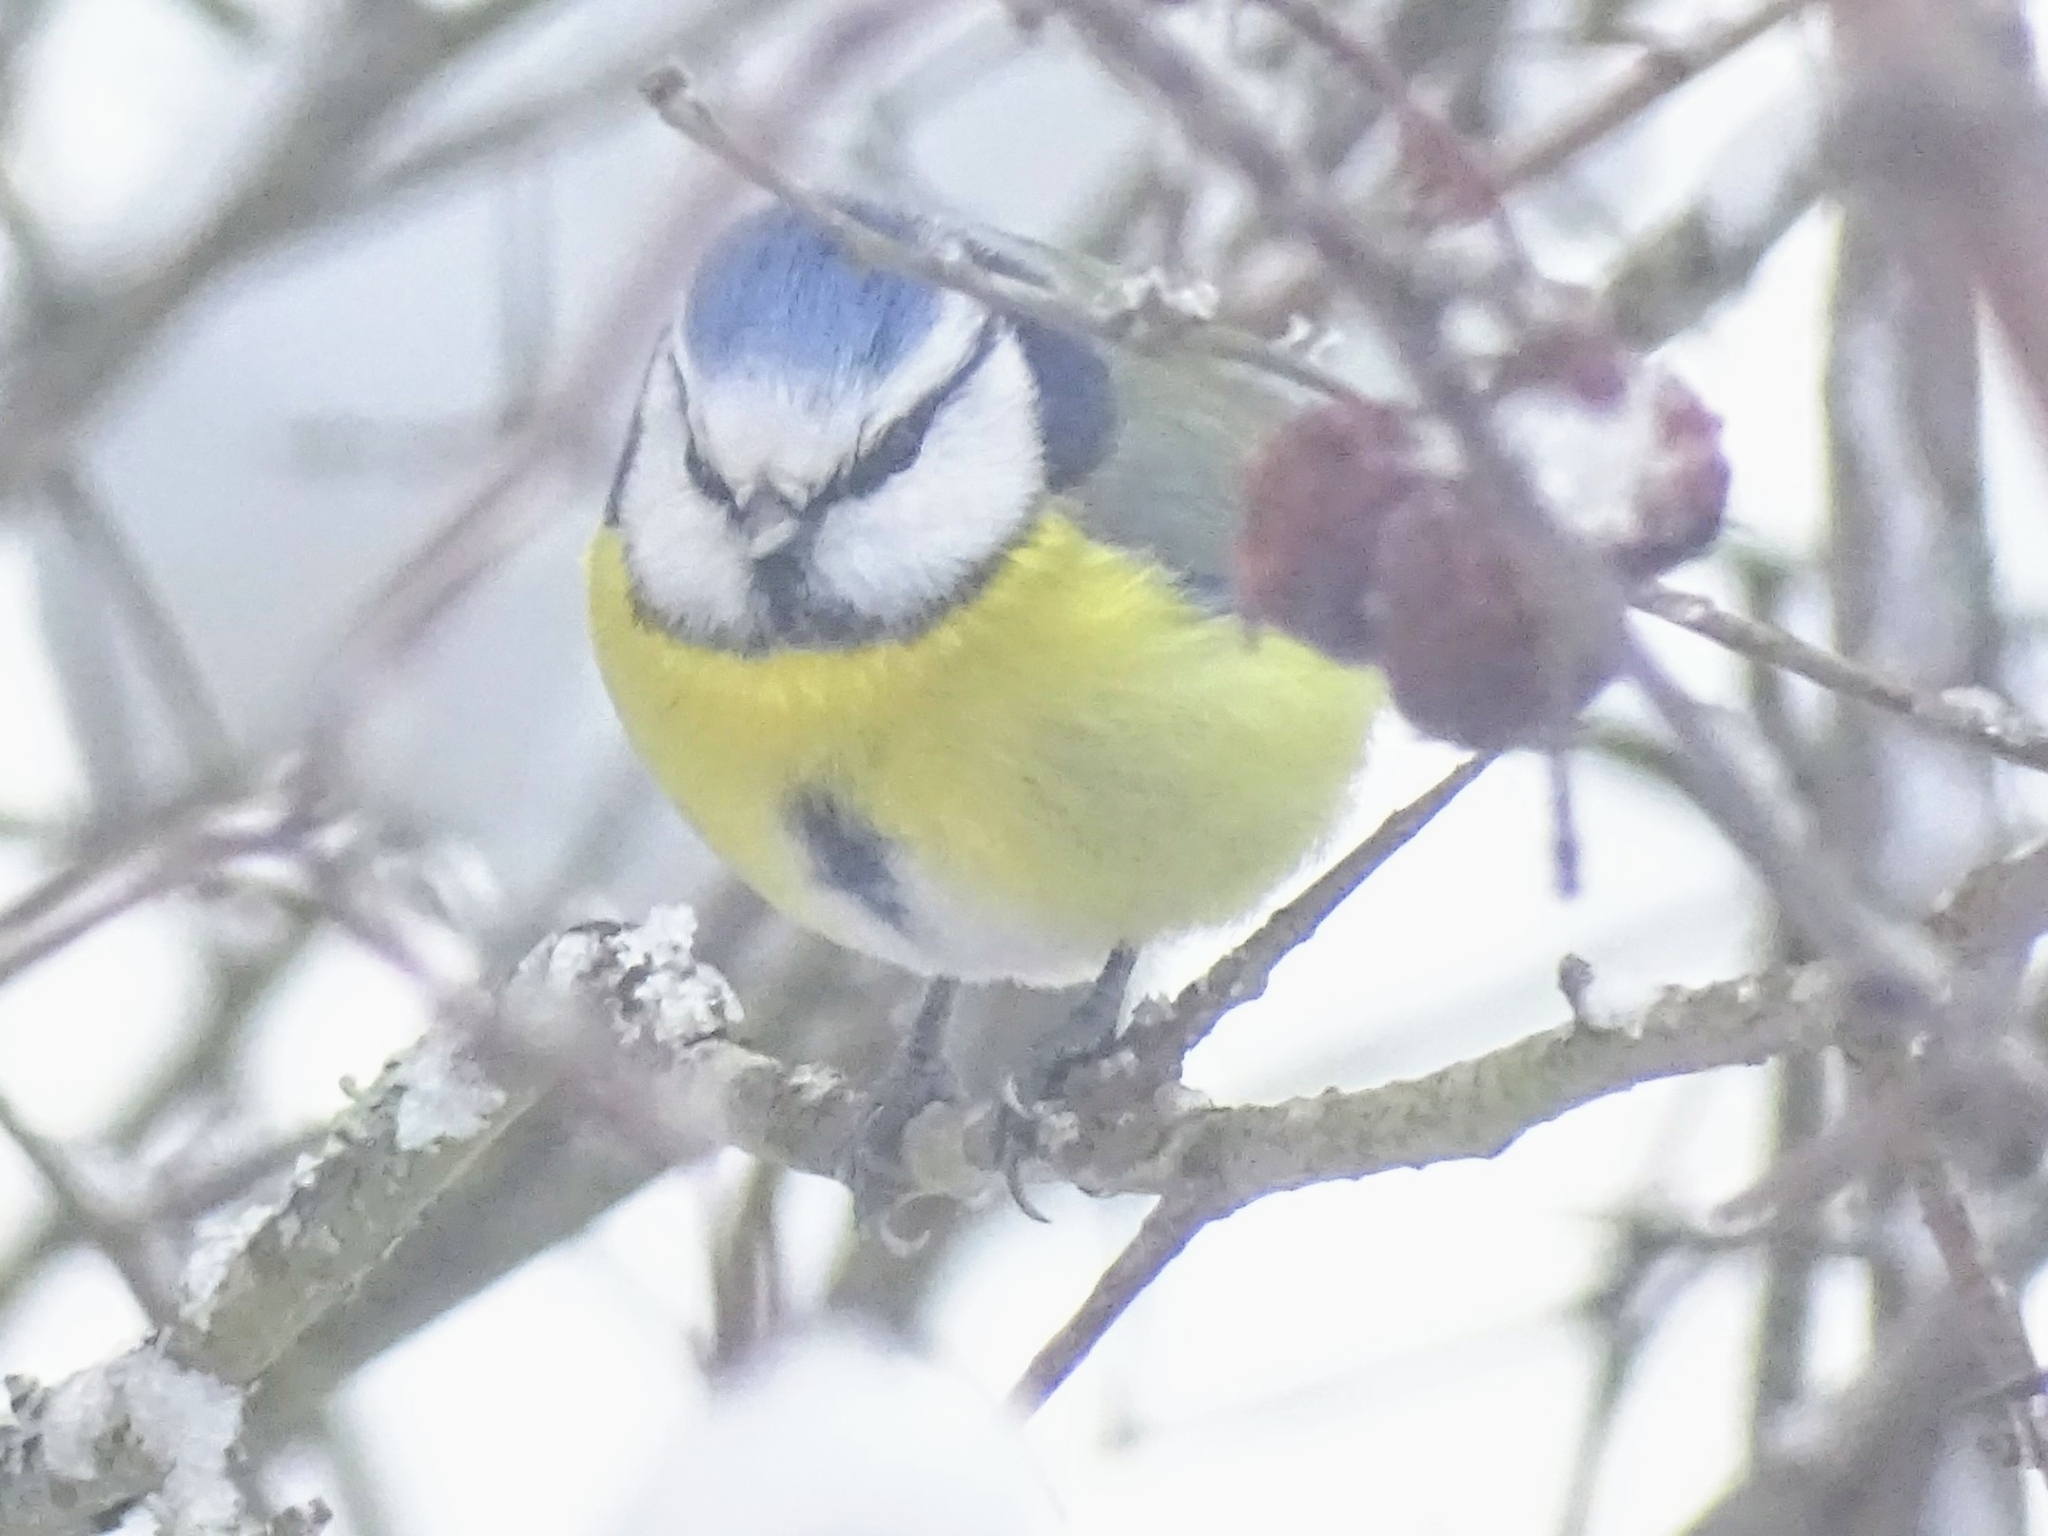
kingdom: Animalia
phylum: Chordata
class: Aves
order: Passeriformes
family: Paridae
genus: Cyanistes
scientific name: Cyanistes caeruleus
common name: Eurasian blue tit
